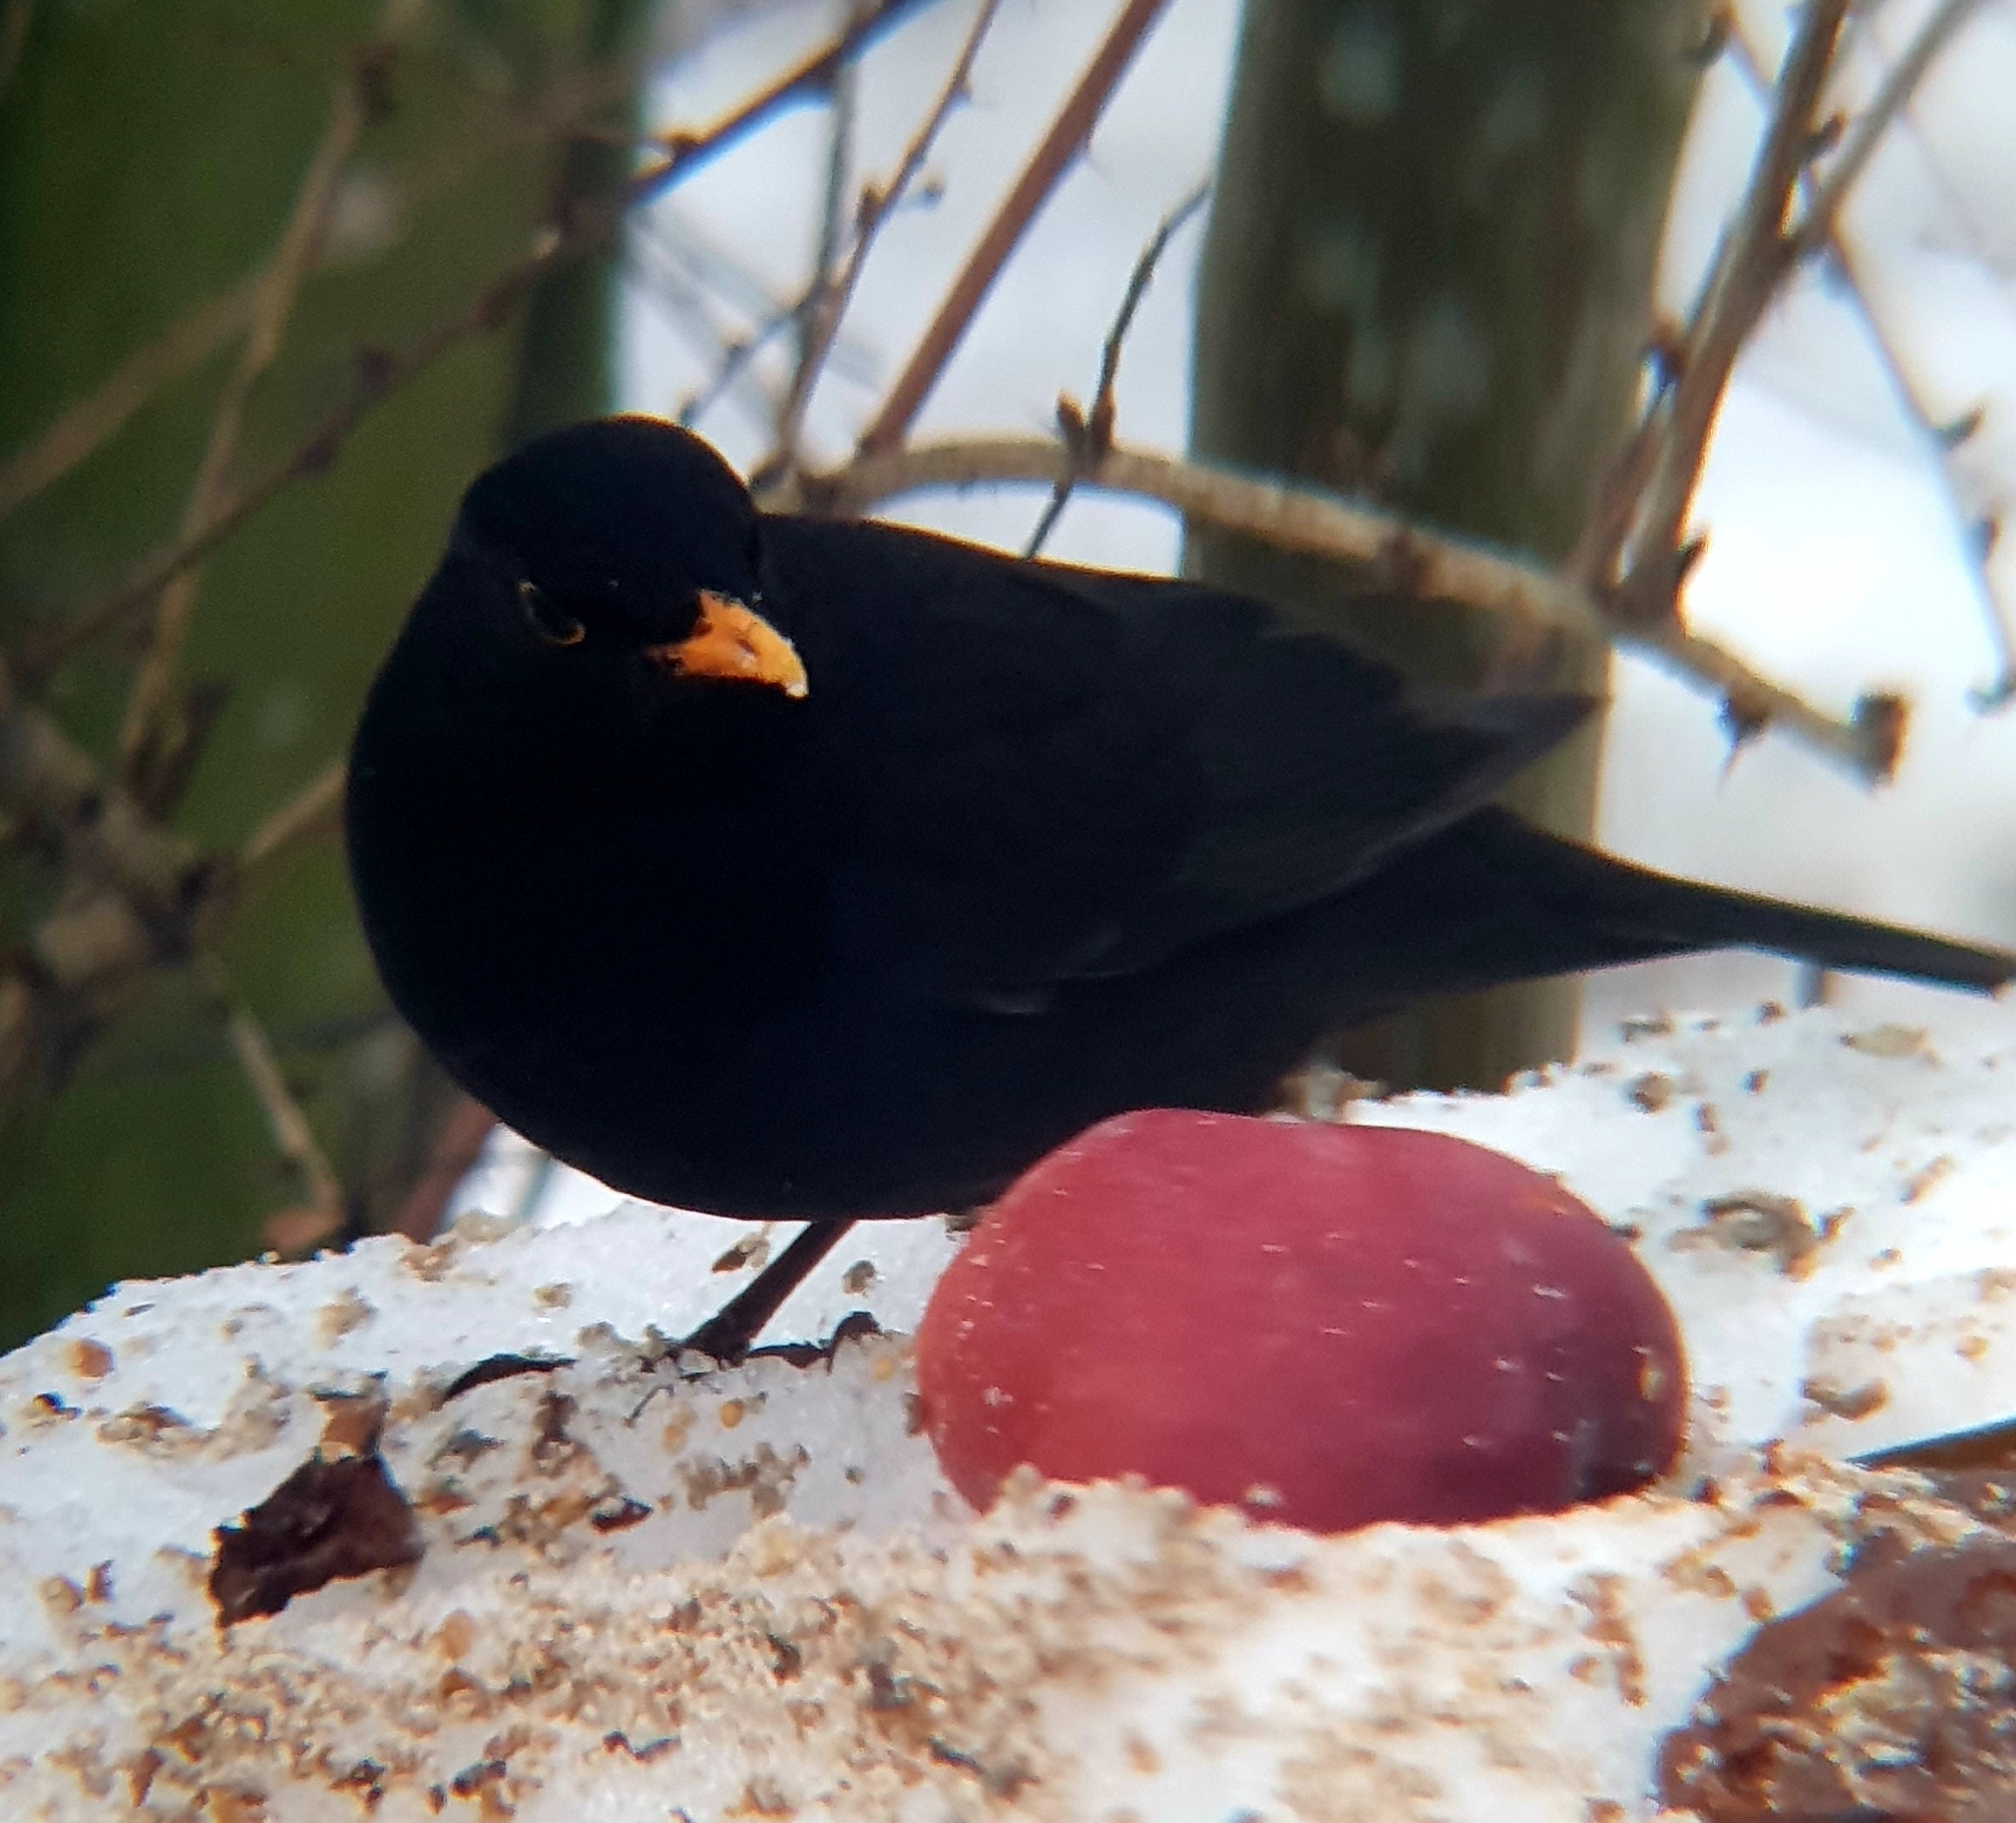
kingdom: Animalia
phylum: Chordata
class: Aves
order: Passeriformes
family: Turdidae
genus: Turdus
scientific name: Turdus merula
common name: Common blackbird
